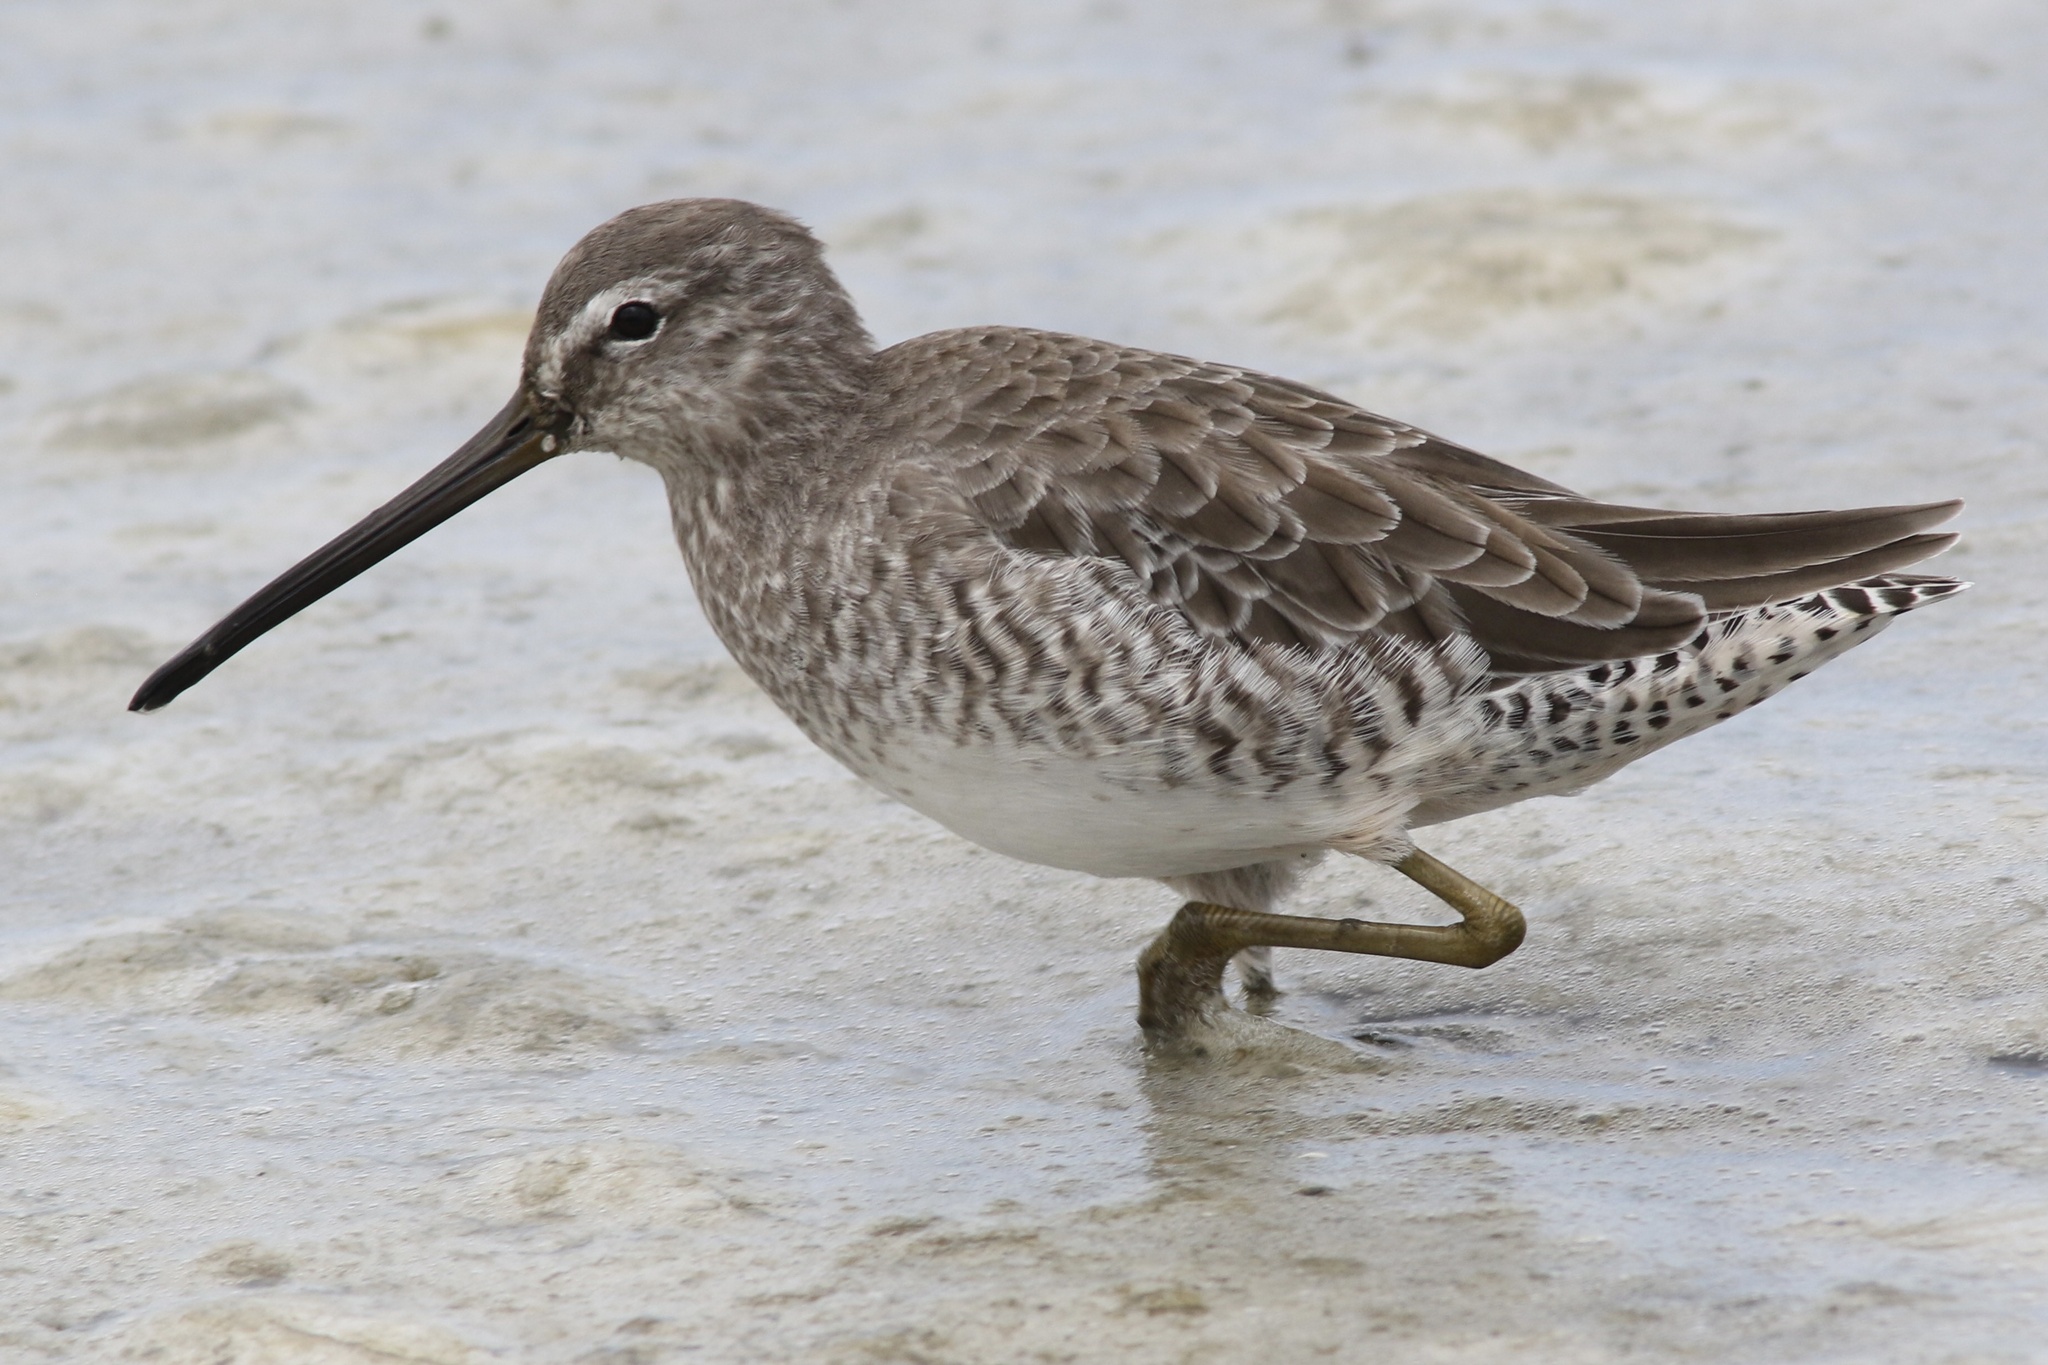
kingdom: Animalia
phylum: Chordata
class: Aves
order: Charadriiformes
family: Scolopacidae
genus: Limnodromus
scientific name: Limnodromus griseus
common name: Short-billed dowitcher
